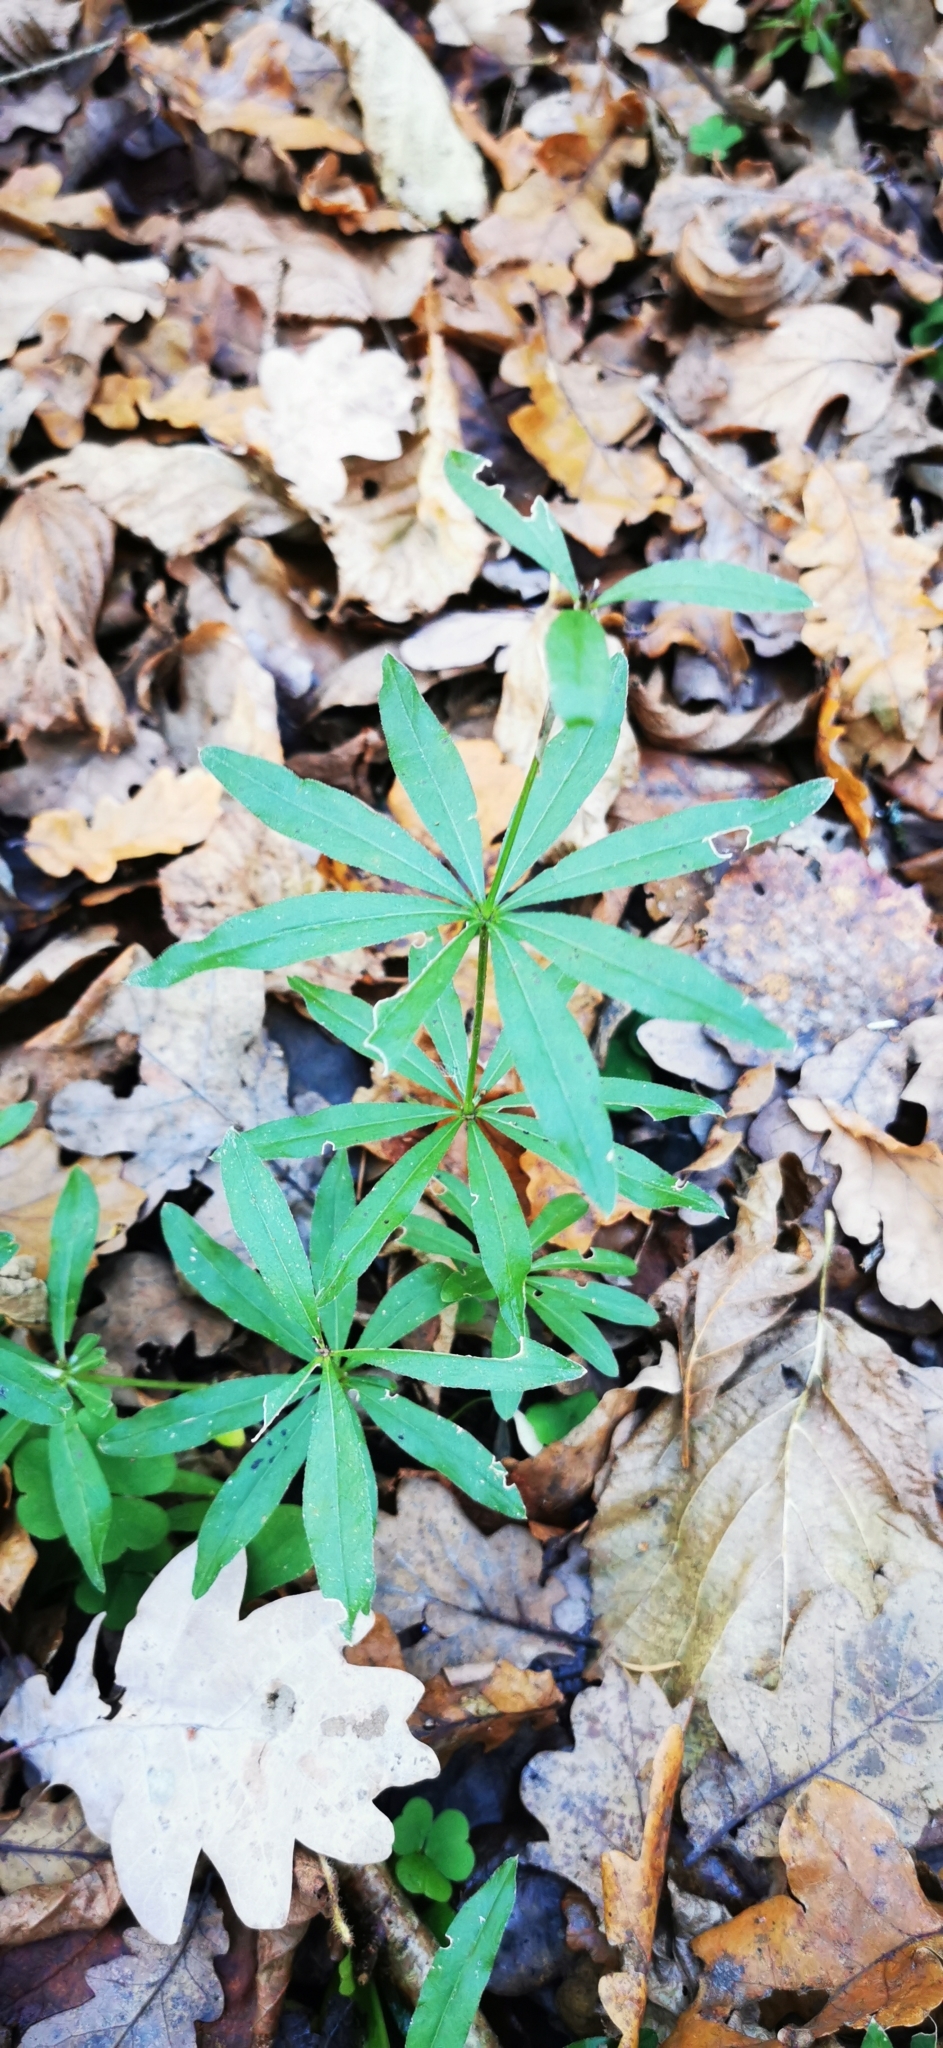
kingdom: Plantae
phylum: Tracheophyta
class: Magnoliopsida
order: Gentianales
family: Rubiaceae
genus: Galium
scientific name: Galium odoratum
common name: Sweet woodruff
